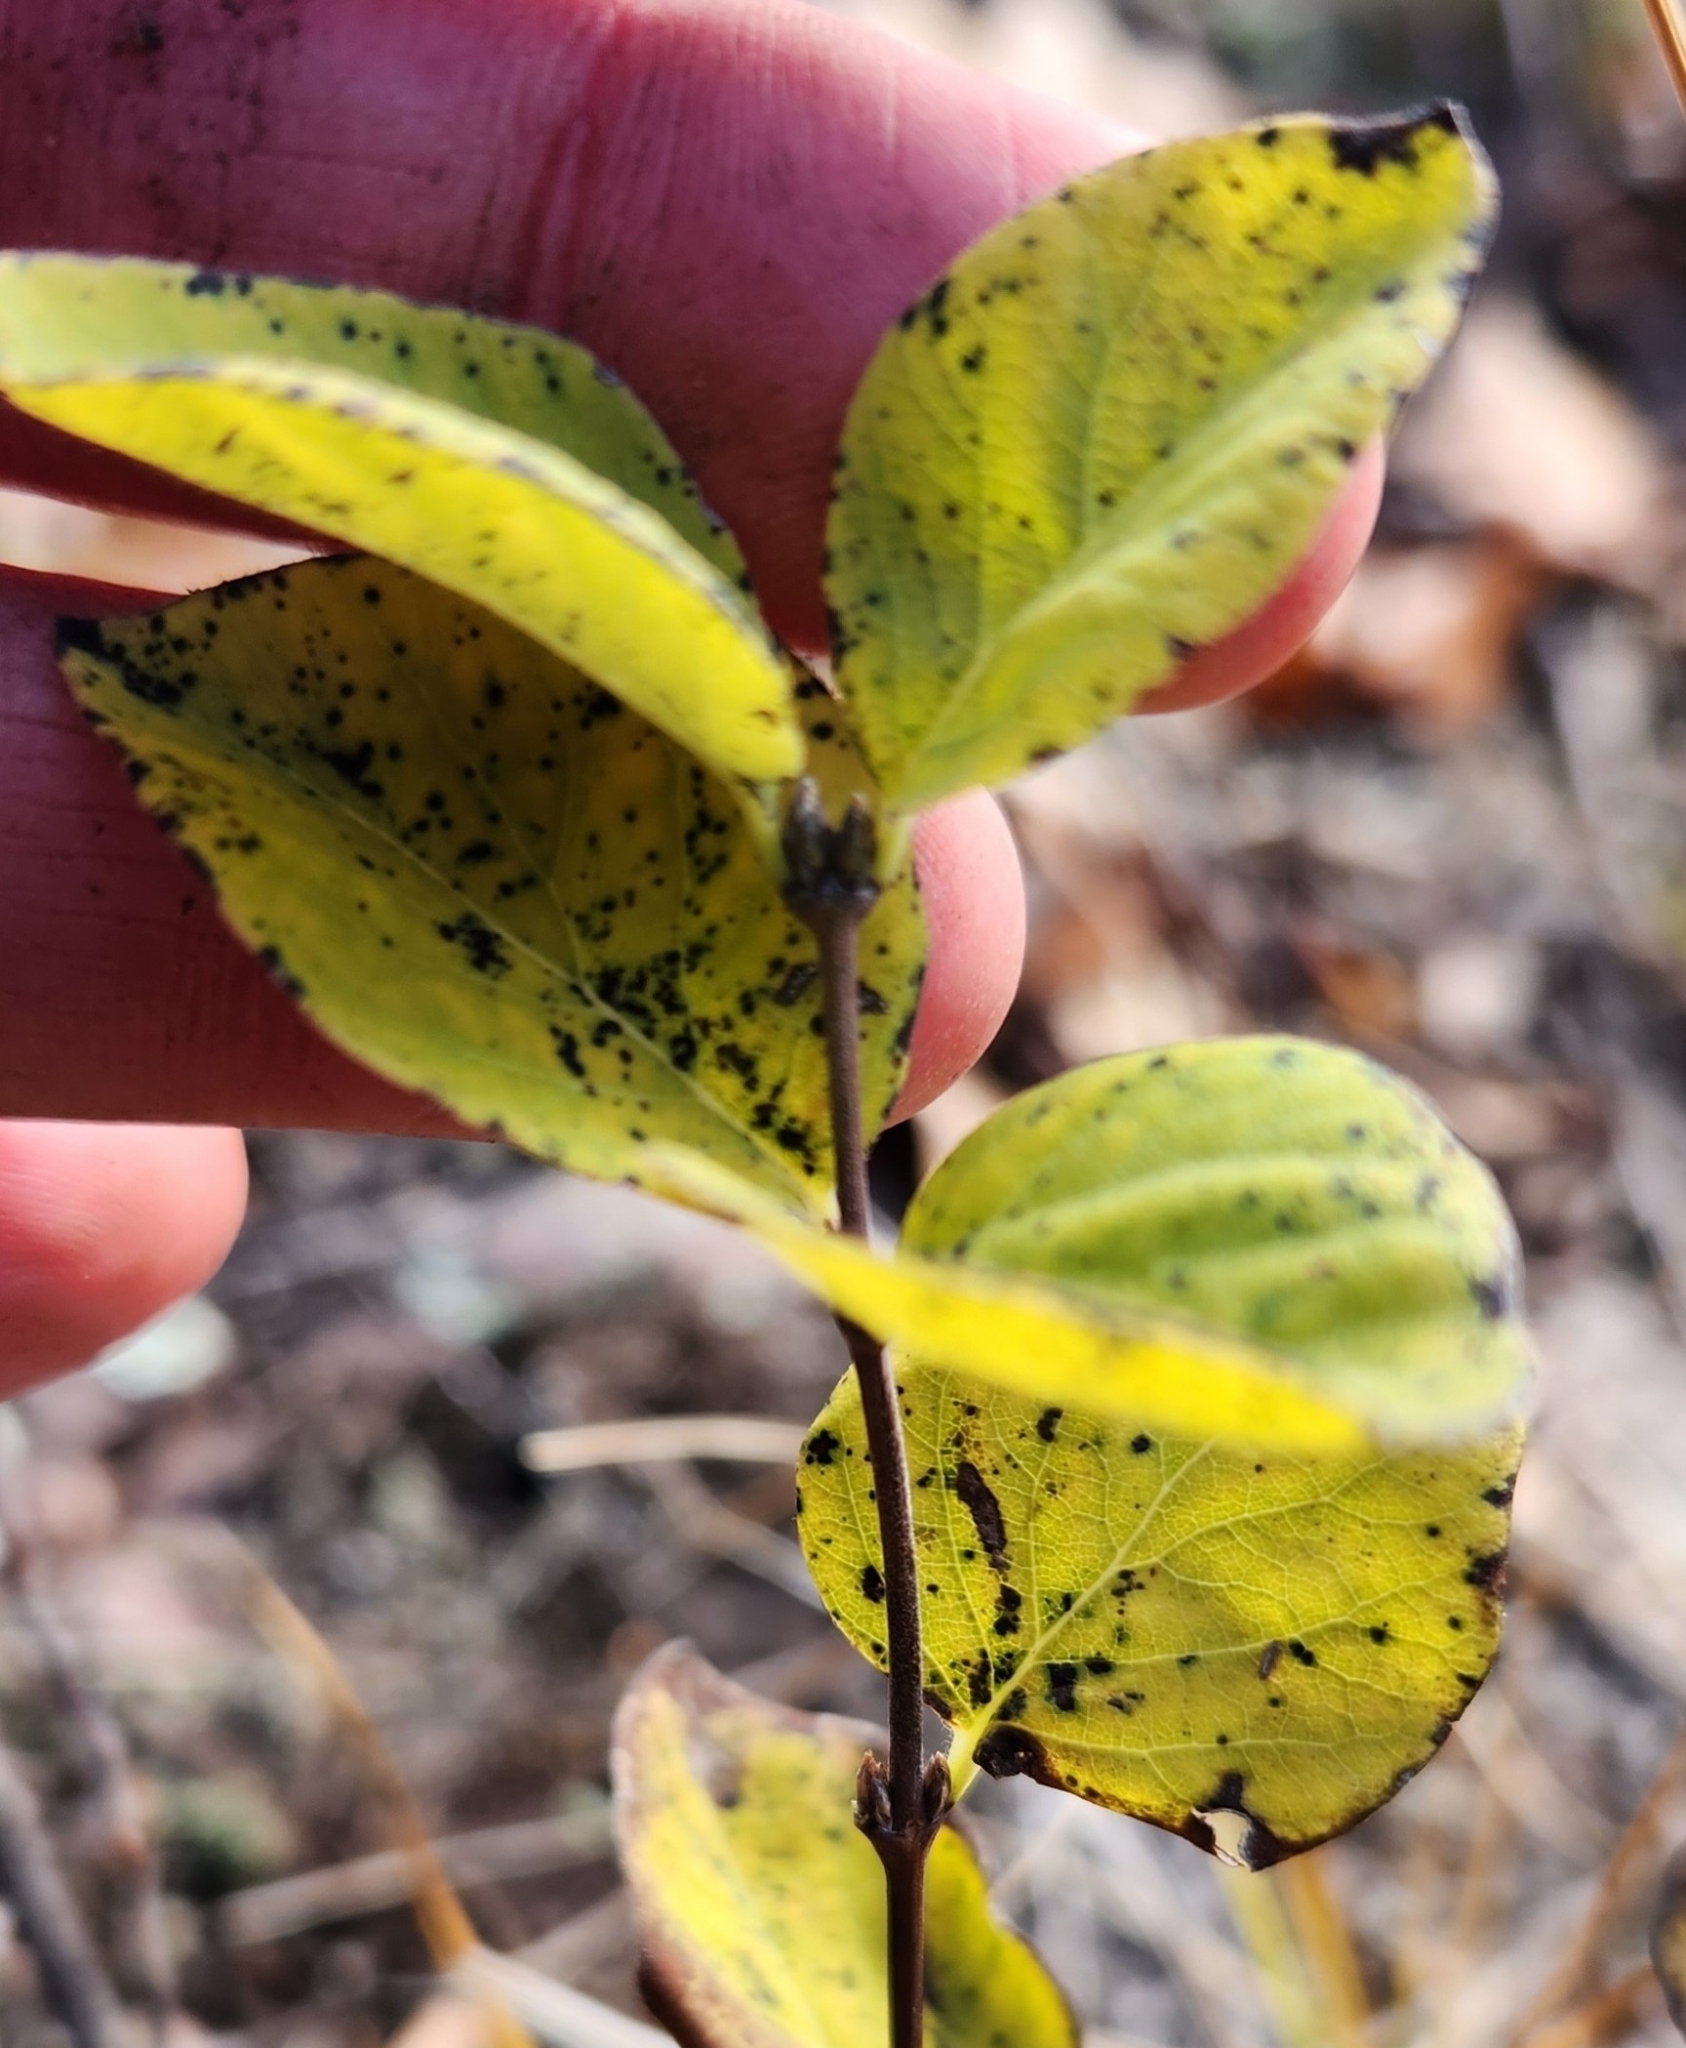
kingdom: Plantae
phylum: Tracheophyta
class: Magnoliopsida
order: Dipsacales
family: Caprifoliaceae
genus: Symphoricarpos
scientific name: Symphoricarpos albus
